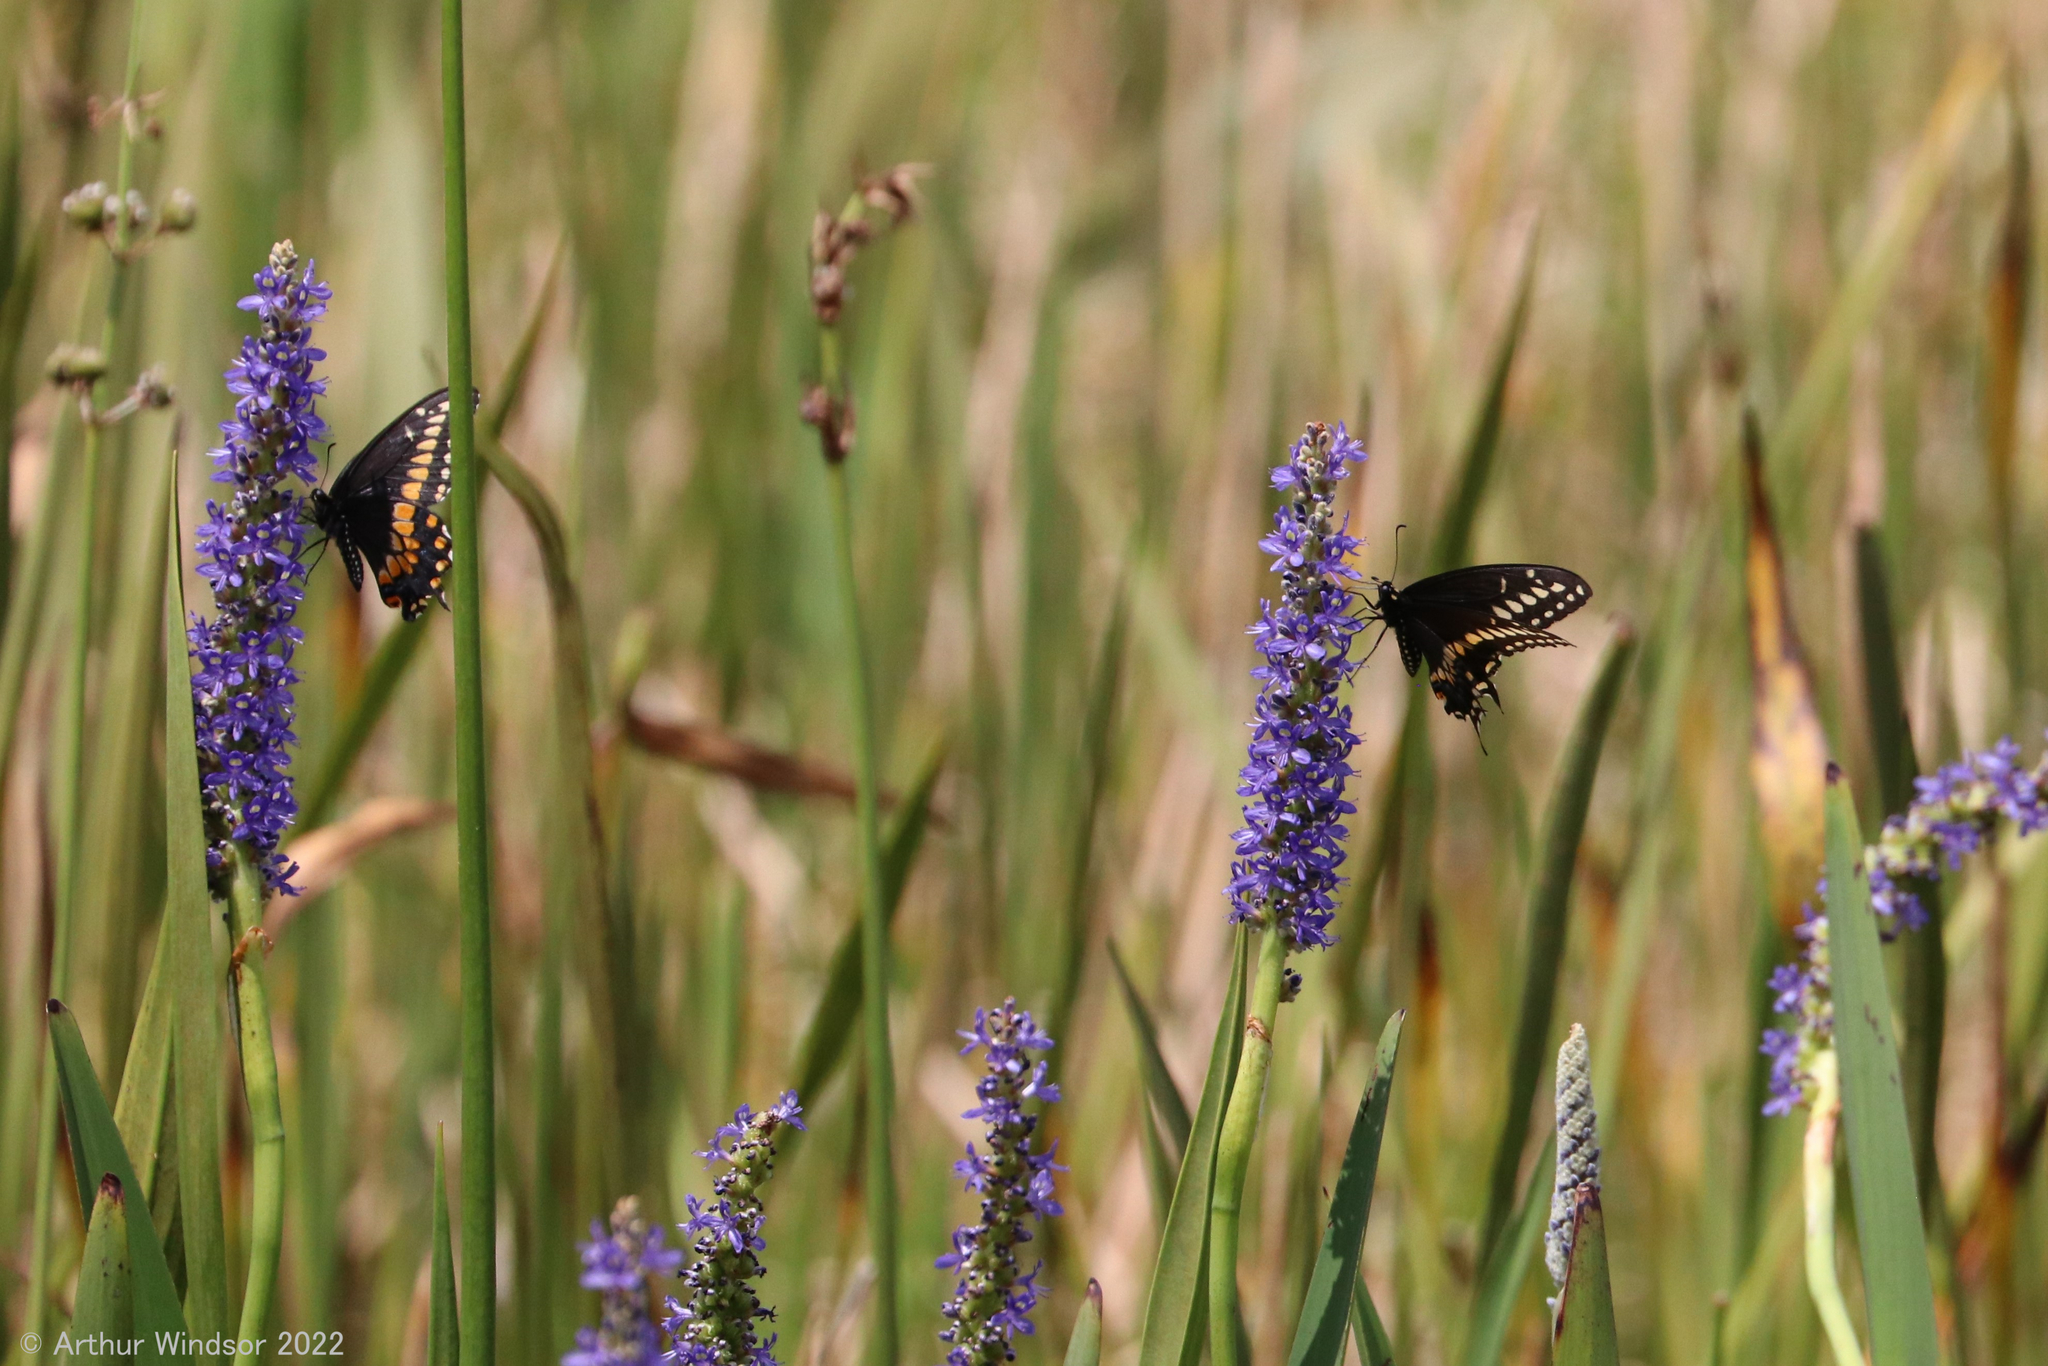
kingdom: Animalia
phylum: Arthropoda
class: Insecta
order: Lepidoptera
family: Papilionidae
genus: Papilio
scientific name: Papilio polyxenes
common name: Black swallowtail
